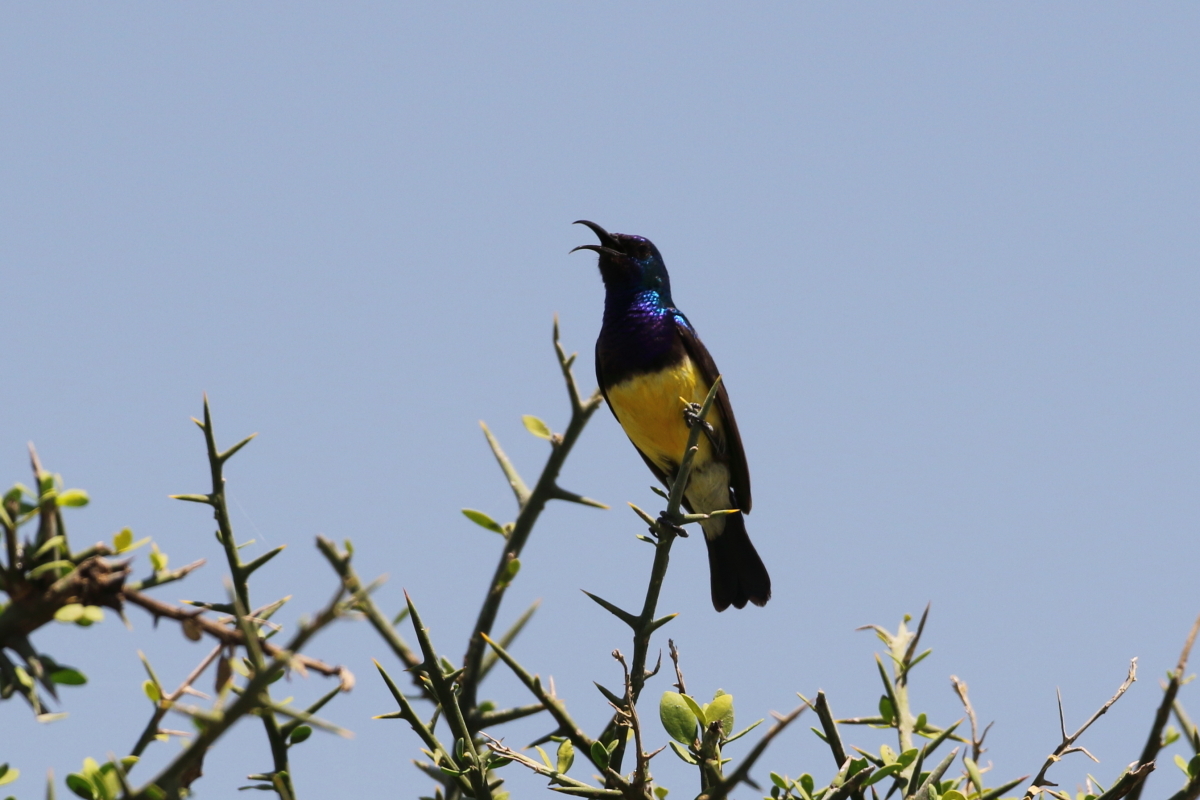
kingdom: Animalia
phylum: Chordata
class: Aves
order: Passeriformes
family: Nectariniidae
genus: Cinnyris
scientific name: Cinnyris venustus
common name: Variable sunbird
